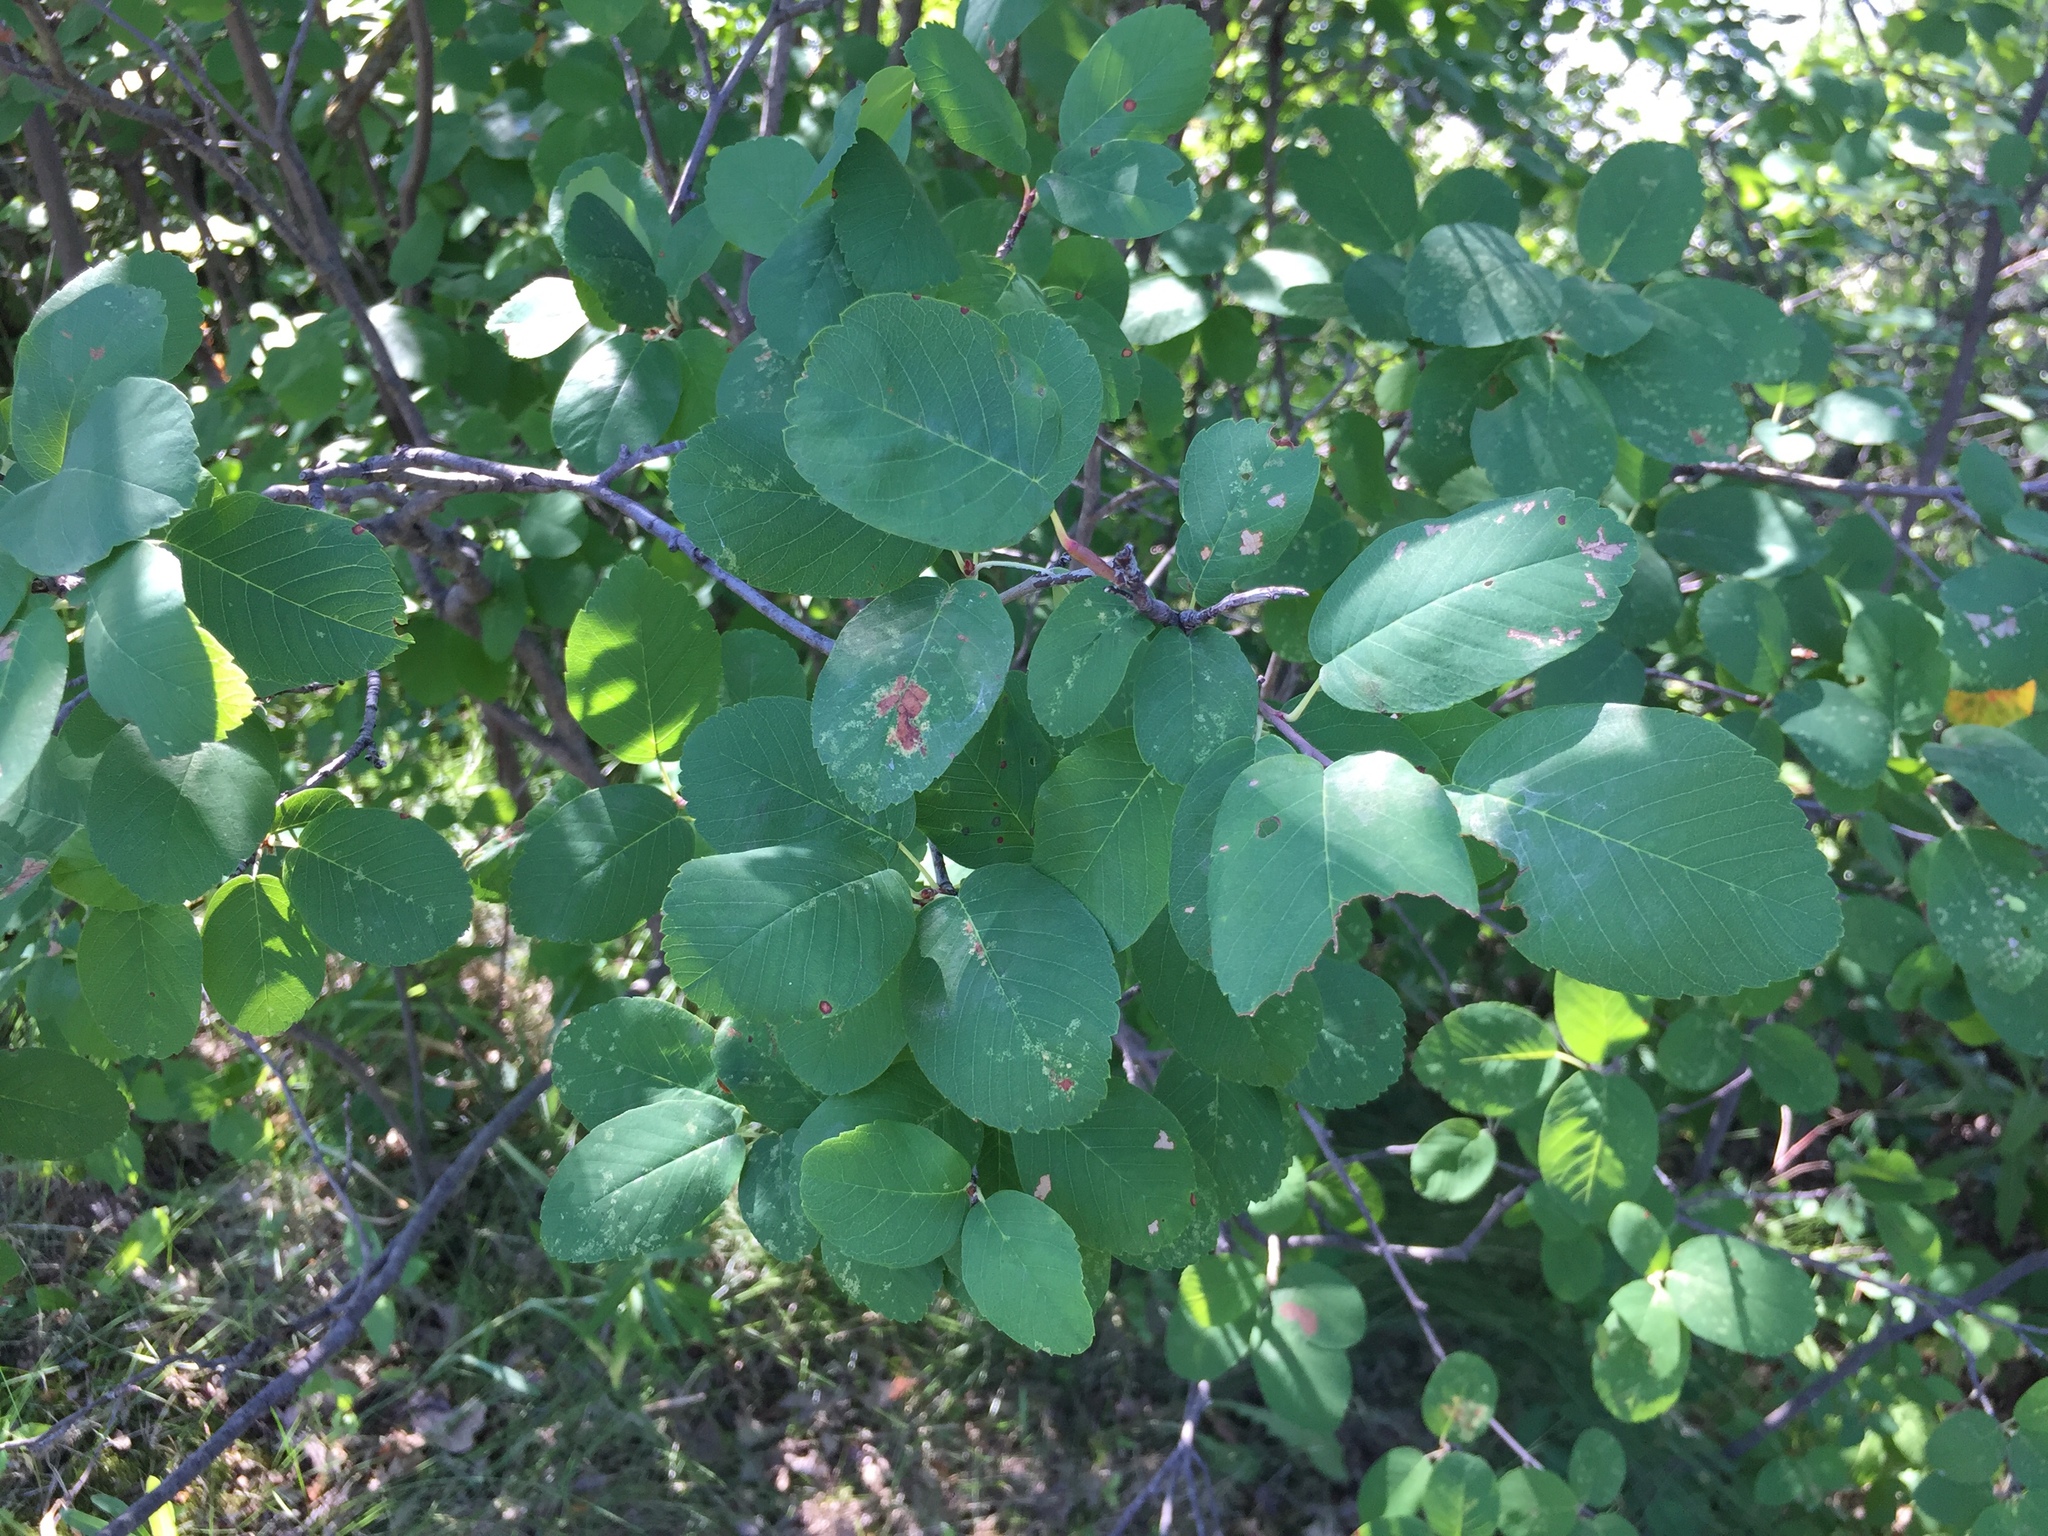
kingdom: Plantae
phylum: Tracheophyta
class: Magnoliopsida
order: Rosales
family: Rosaceae
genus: Amelanchier
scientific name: Amelanchier alnifolia
